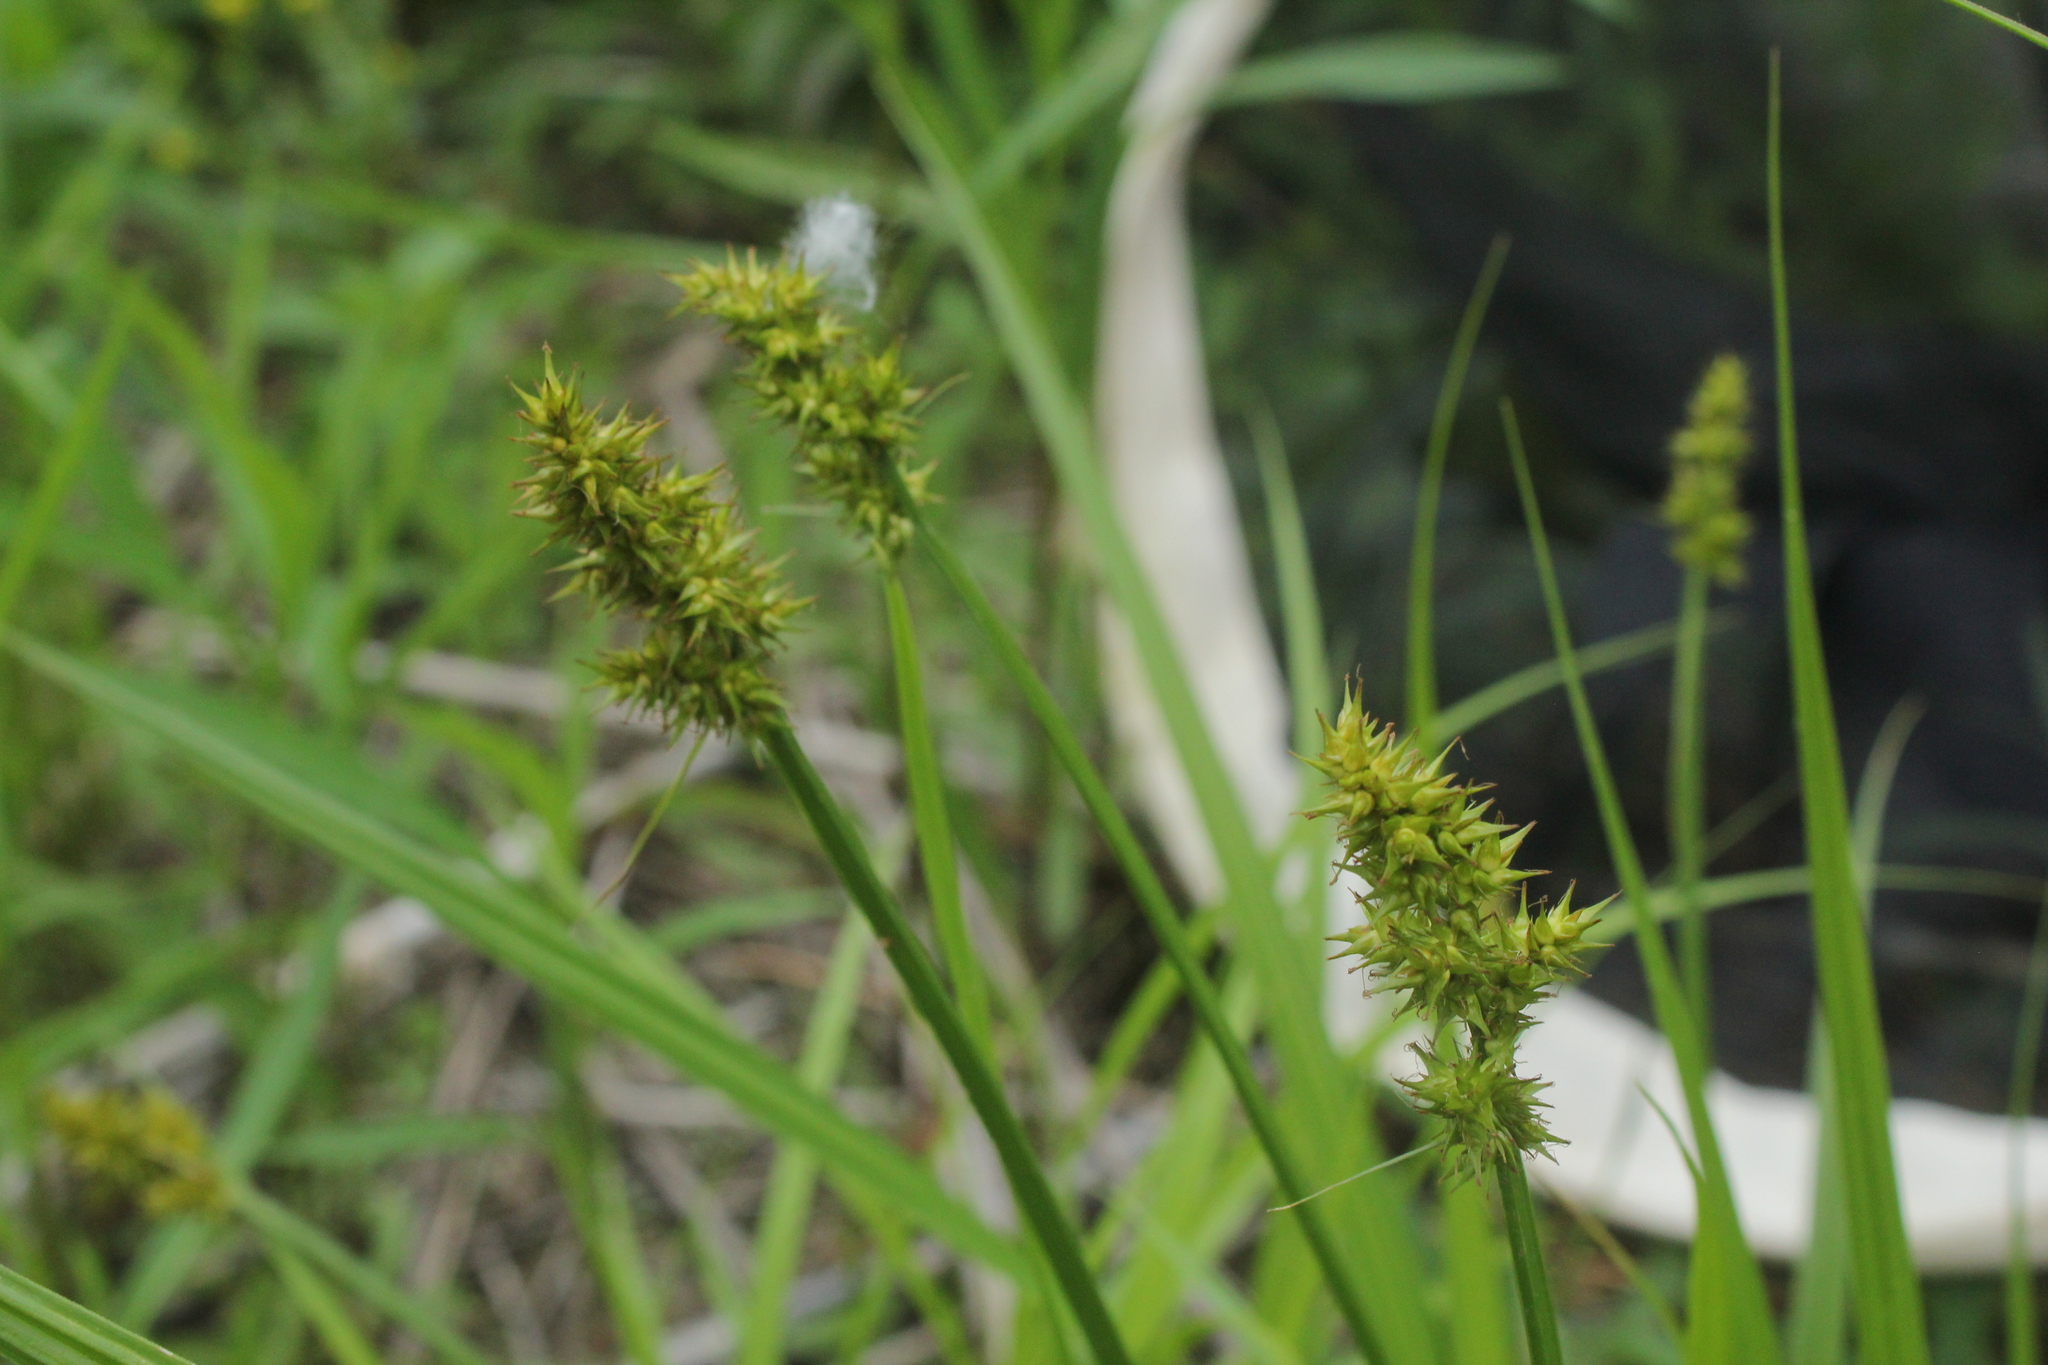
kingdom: Plantae
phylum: Tracheophyta
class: Liliopsida
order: Poales
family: Cyperaceae
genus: Carex
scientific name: Carex stipata
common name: Awl-fruited sedge
